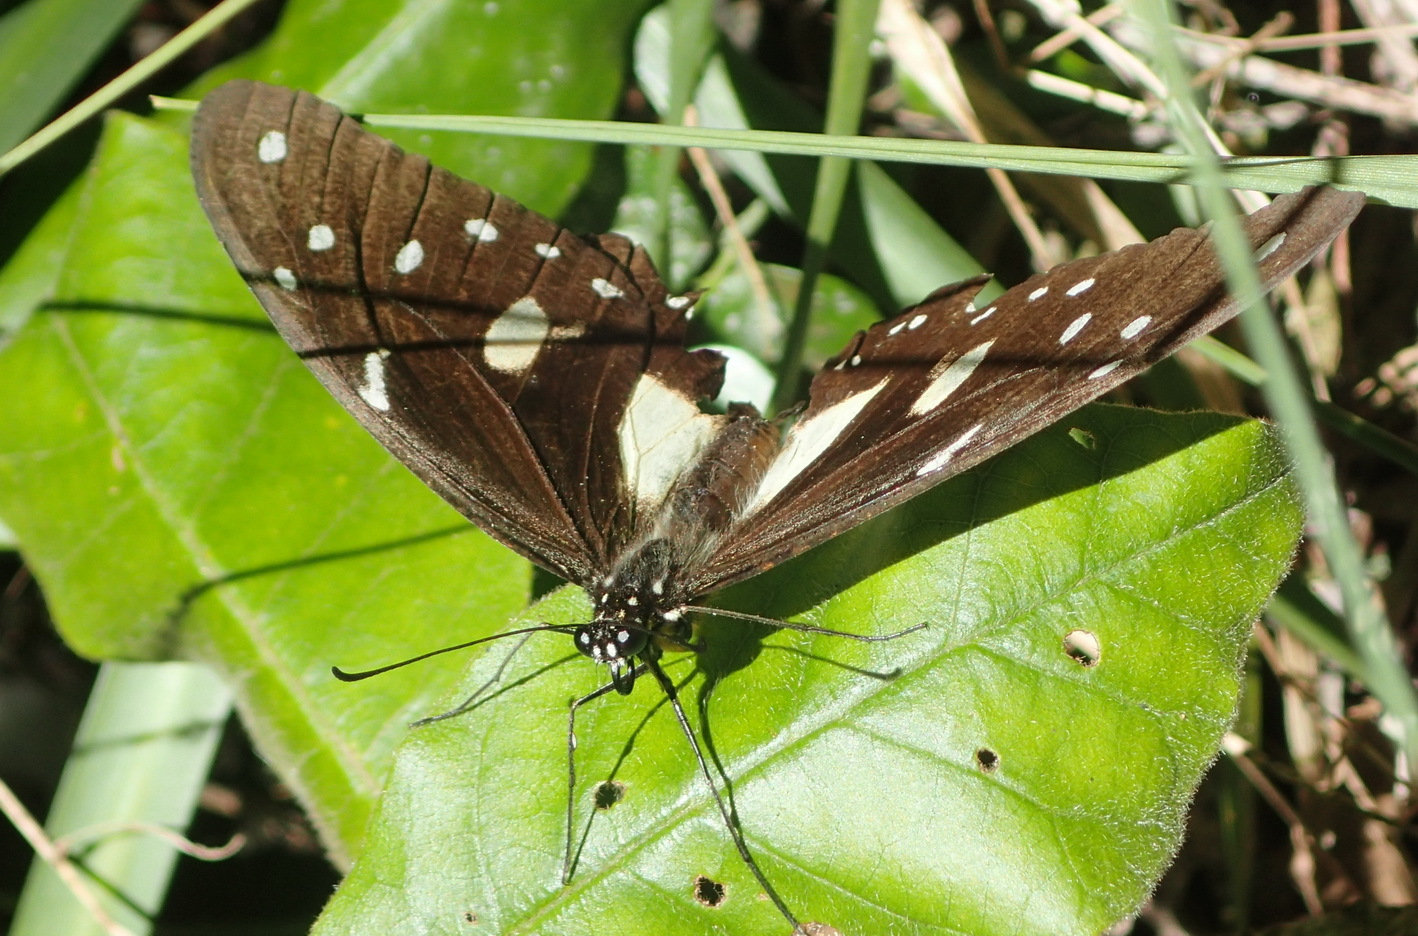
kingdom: Animalia
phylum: Arthropoda
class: Insecta
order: Lepidoptera
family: Papilionidae
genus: Papilio
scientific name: Papilio dardanus
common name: Flying handkerchief
